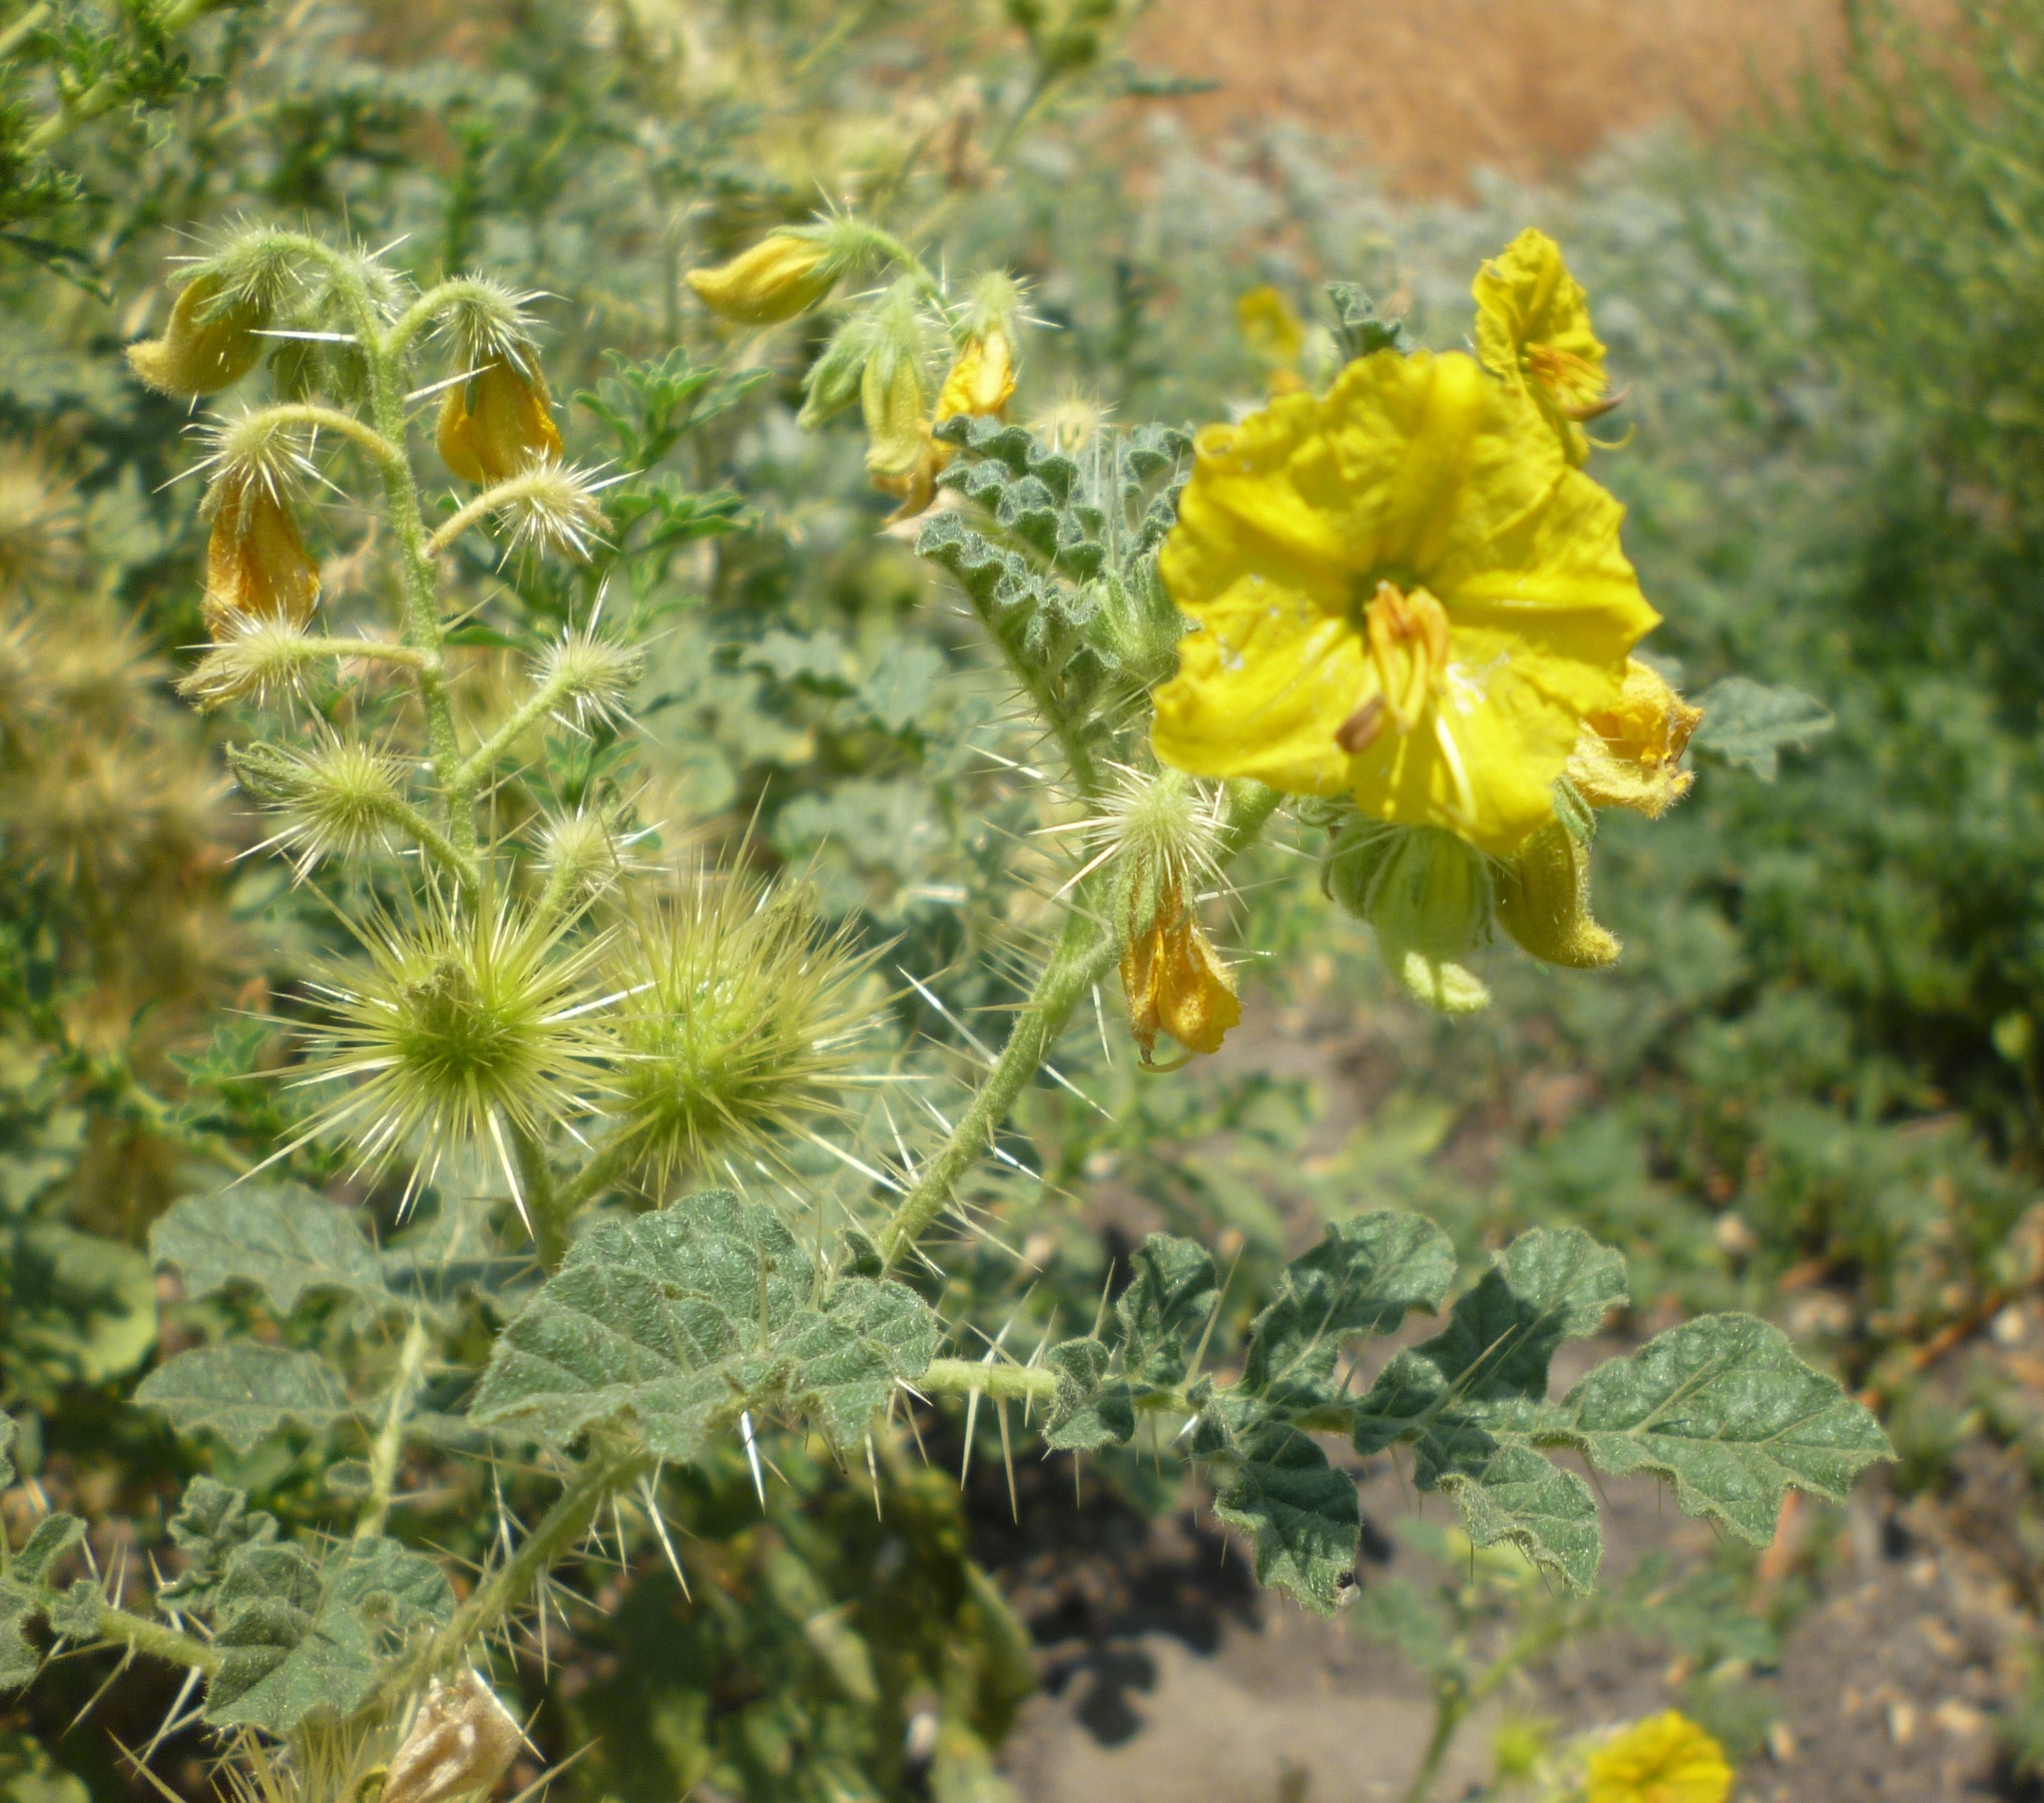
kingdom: Plantae
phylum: Tracheophyta
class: Magnoliopsida
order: Solanales
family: Solanaceae
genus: Solanum
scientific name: Solanum angustifolium
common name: Buffalobur nightshade
